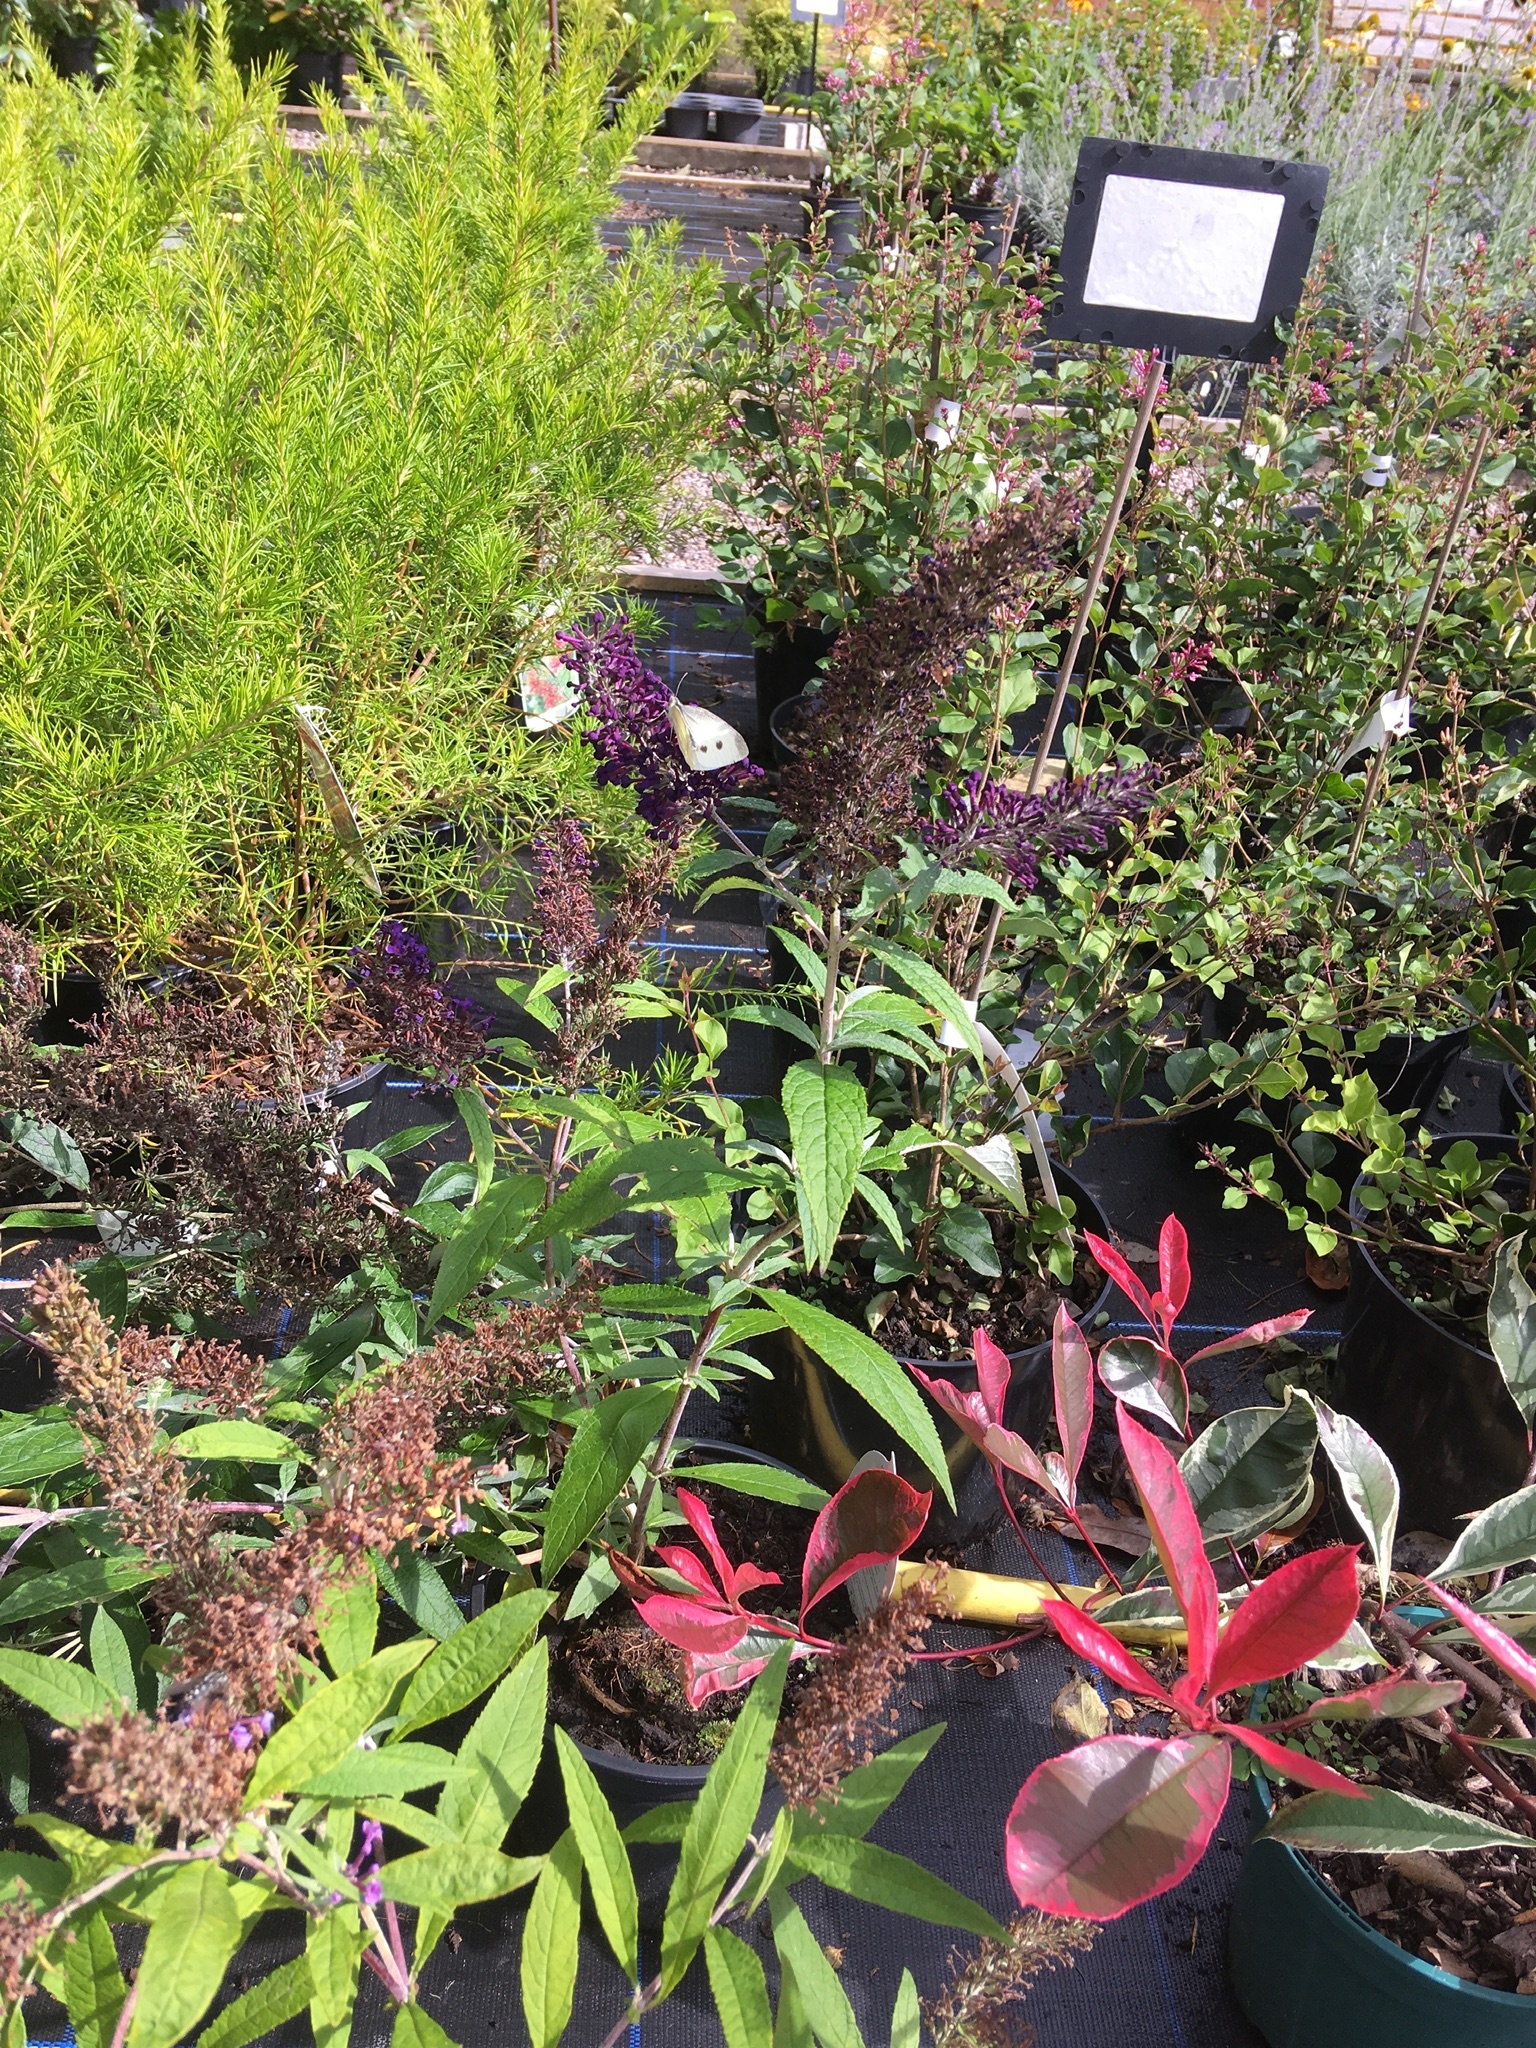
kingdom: Animalia
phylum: Arthropoda
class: Insecta
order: Lepidoptera
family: Pieridae
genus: Pieris
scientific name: Pieris rapae
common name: Small white
